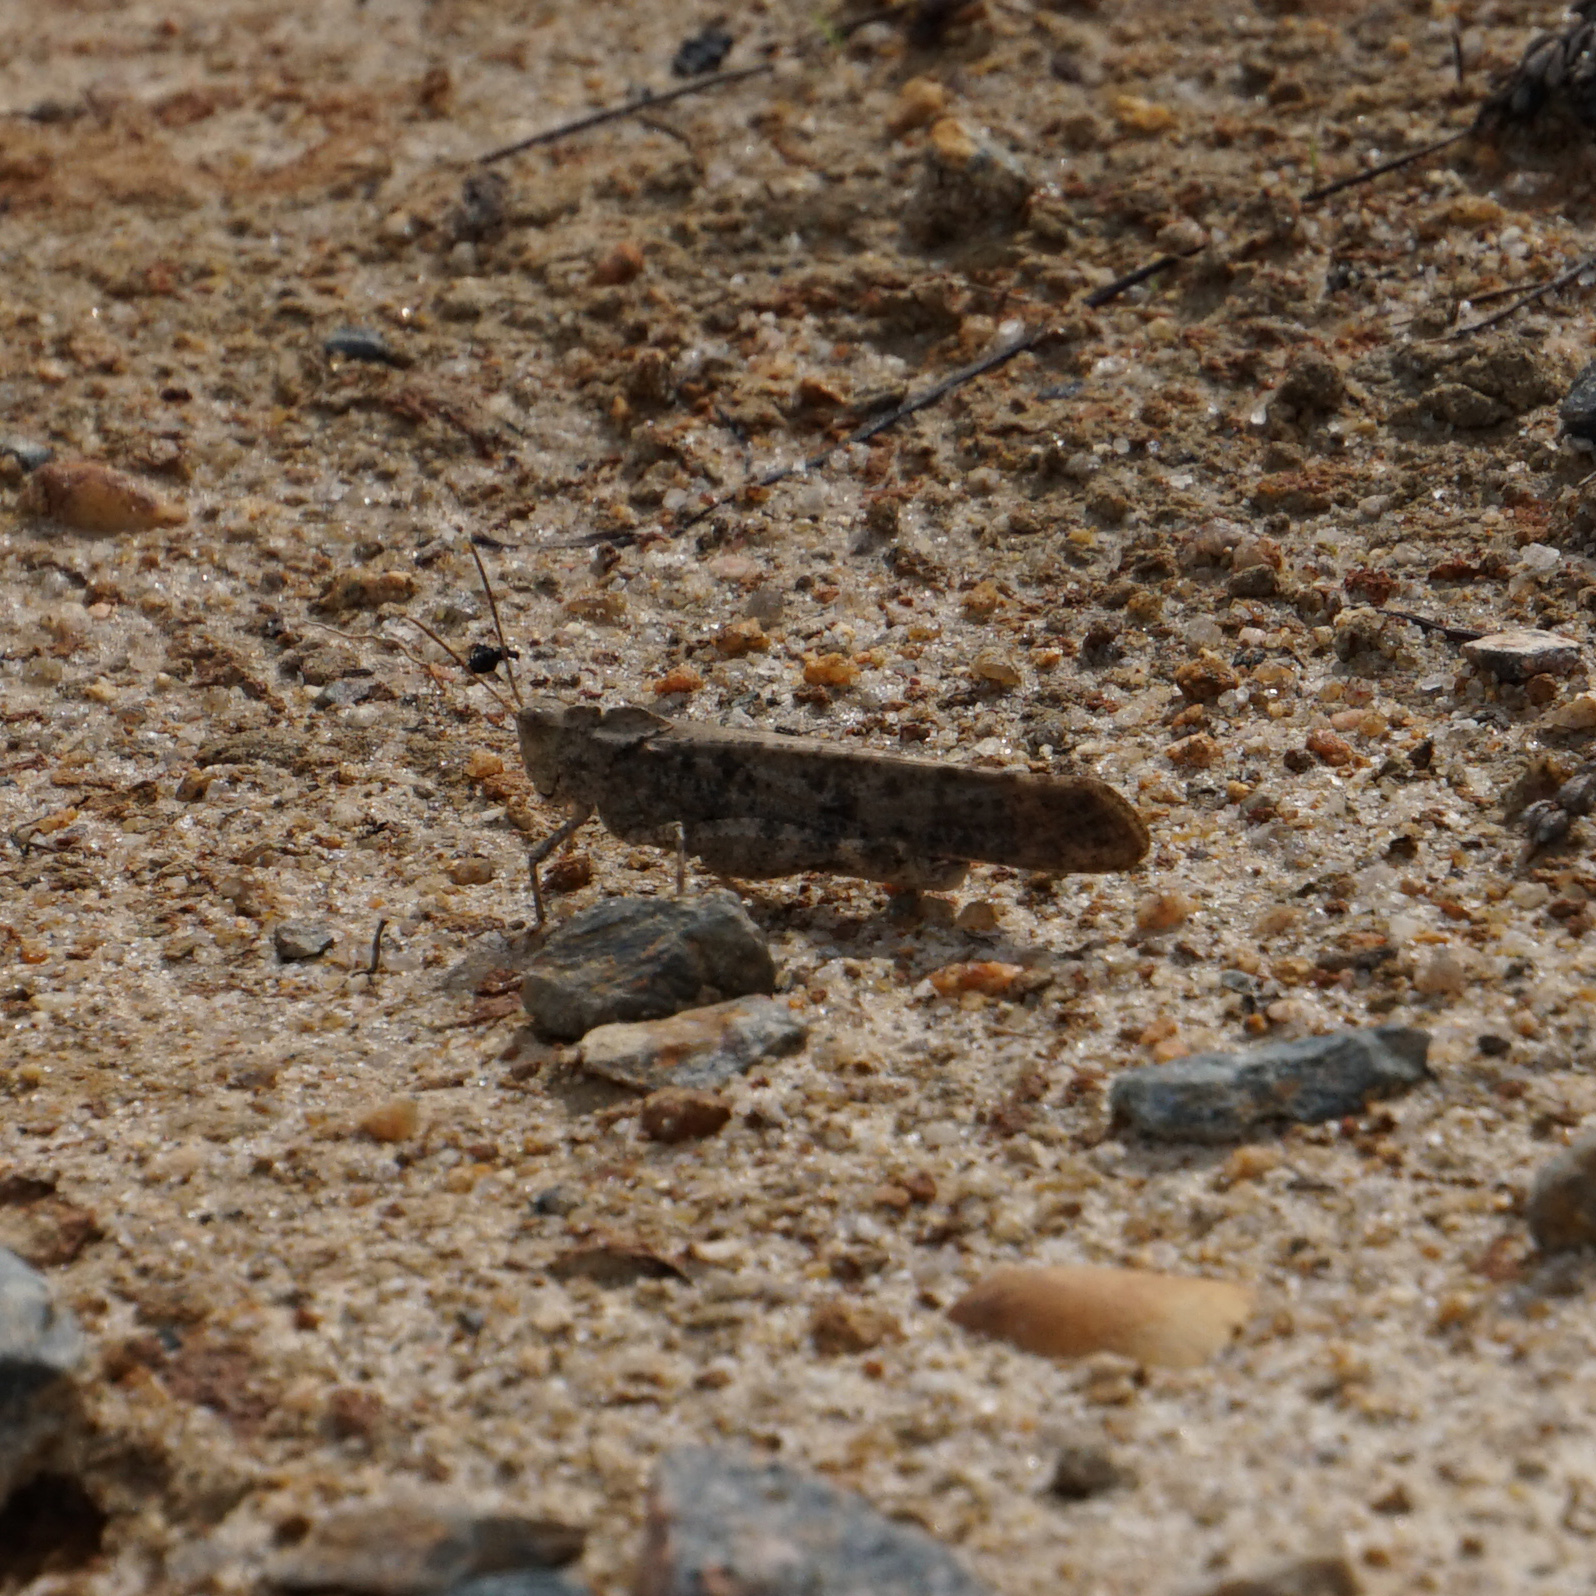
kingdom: Animalia
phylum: Arthropoda
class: Insecta
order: Orthoptera
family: Acrididae
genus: Dissosteira
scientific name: Dissosteira carolina
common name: Carolina grasshopper
